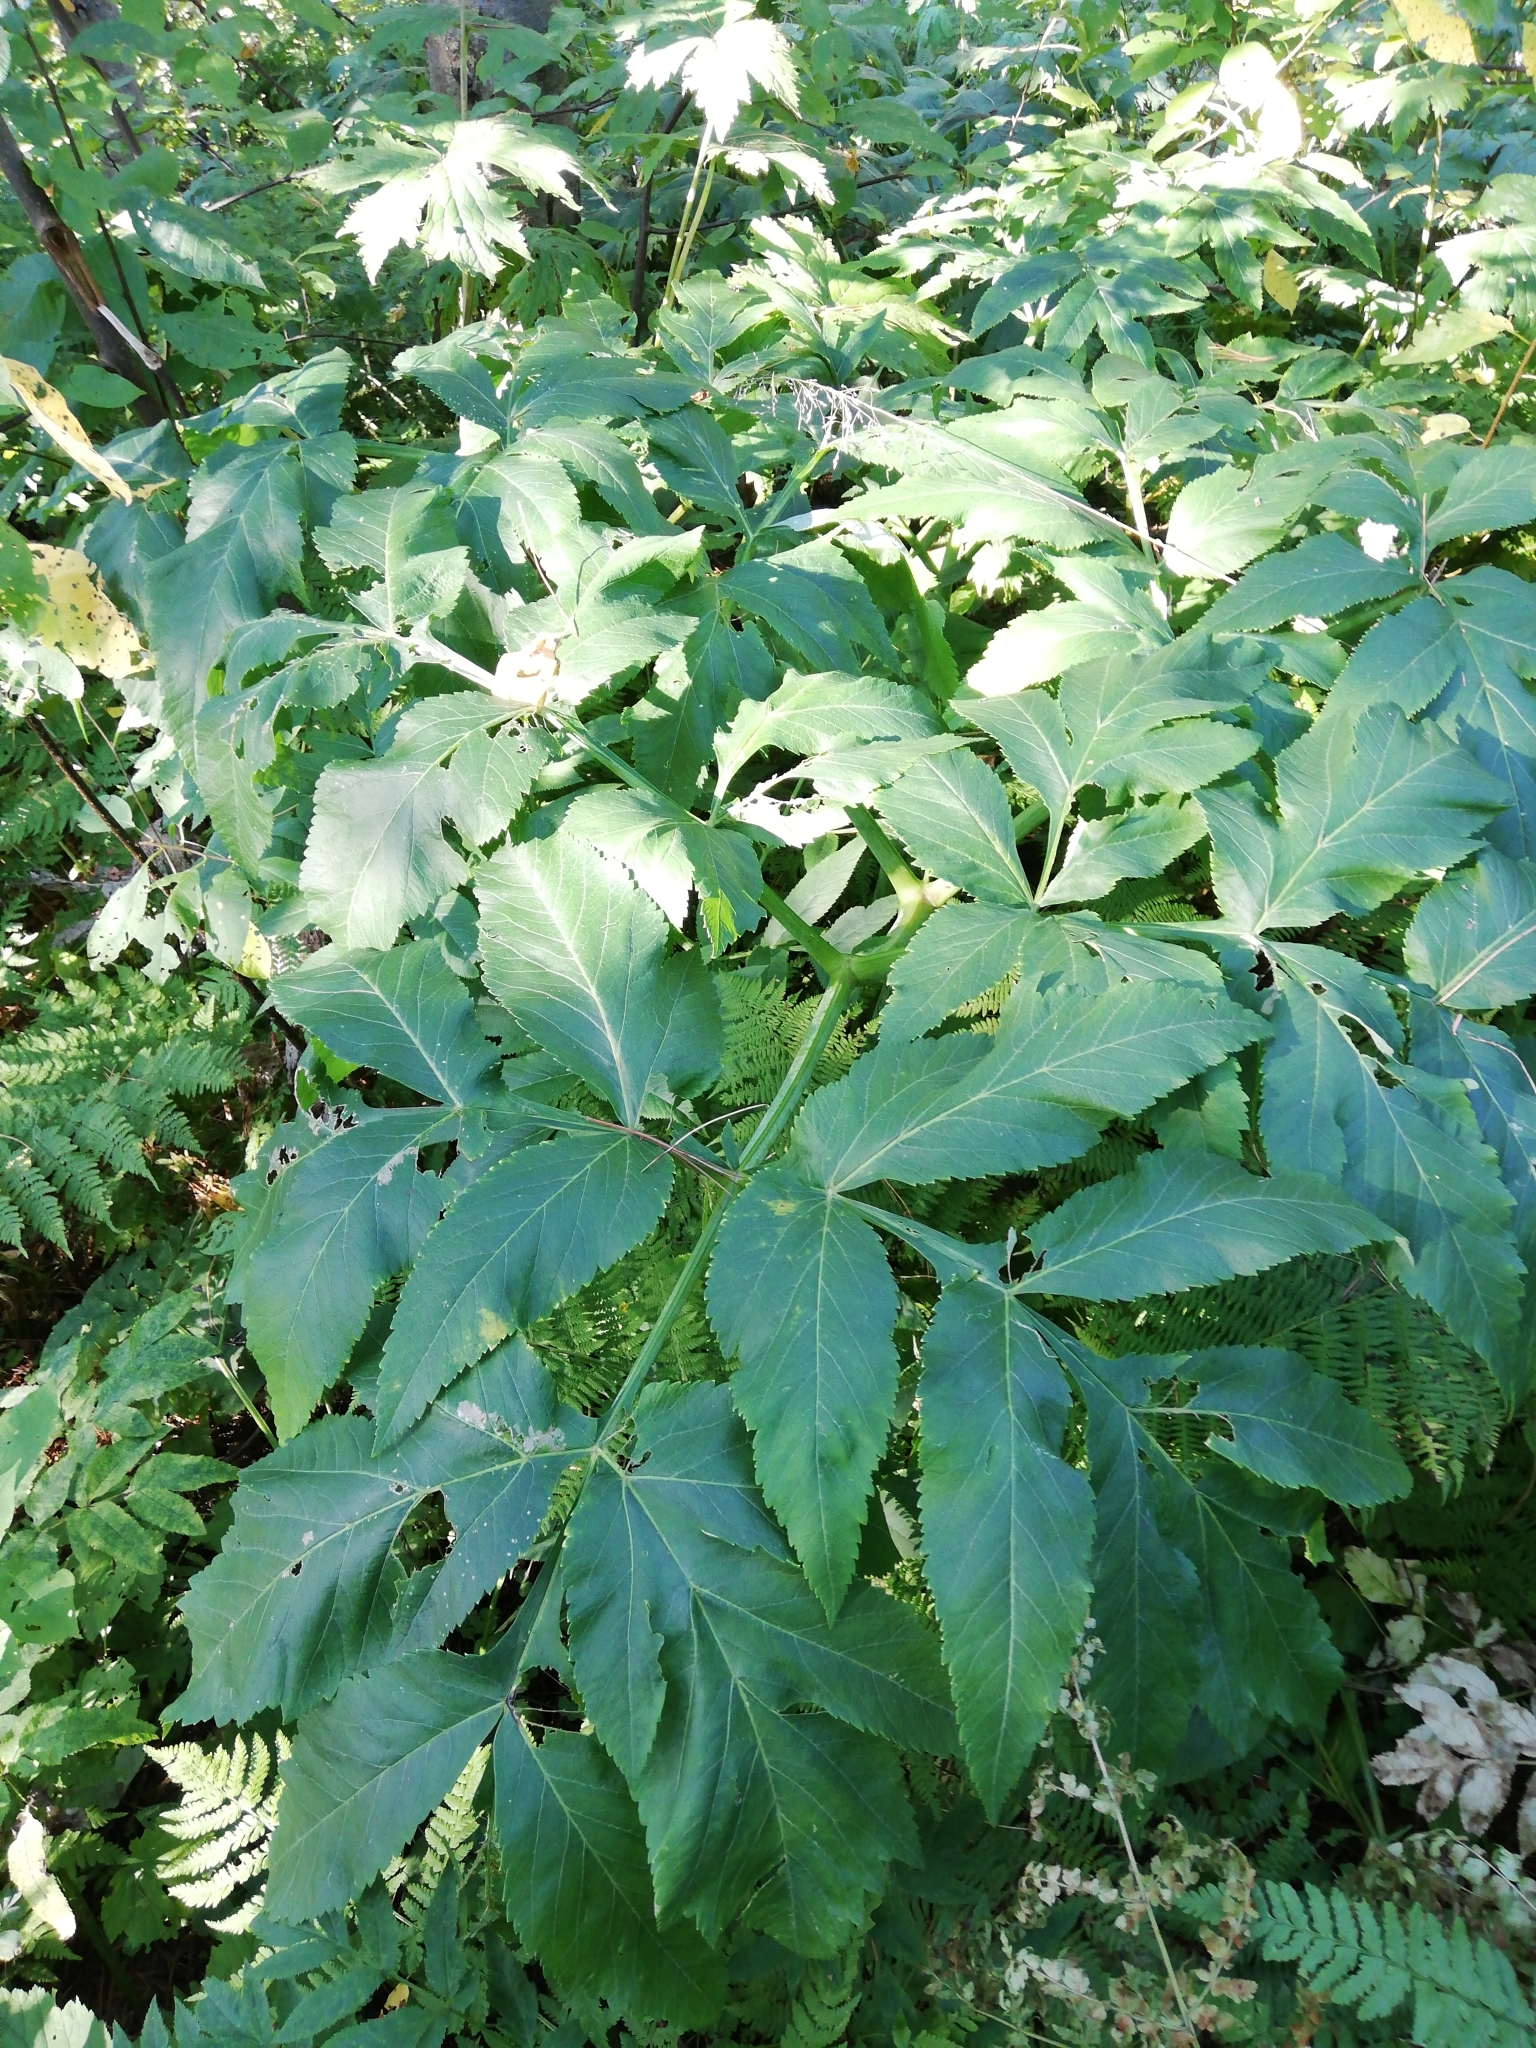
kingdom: Plantae
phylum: Tracheophyta
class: Magnoliopsida
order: Apiales
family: Apiaceae
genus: Angelica
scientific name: Angelica decurrens
